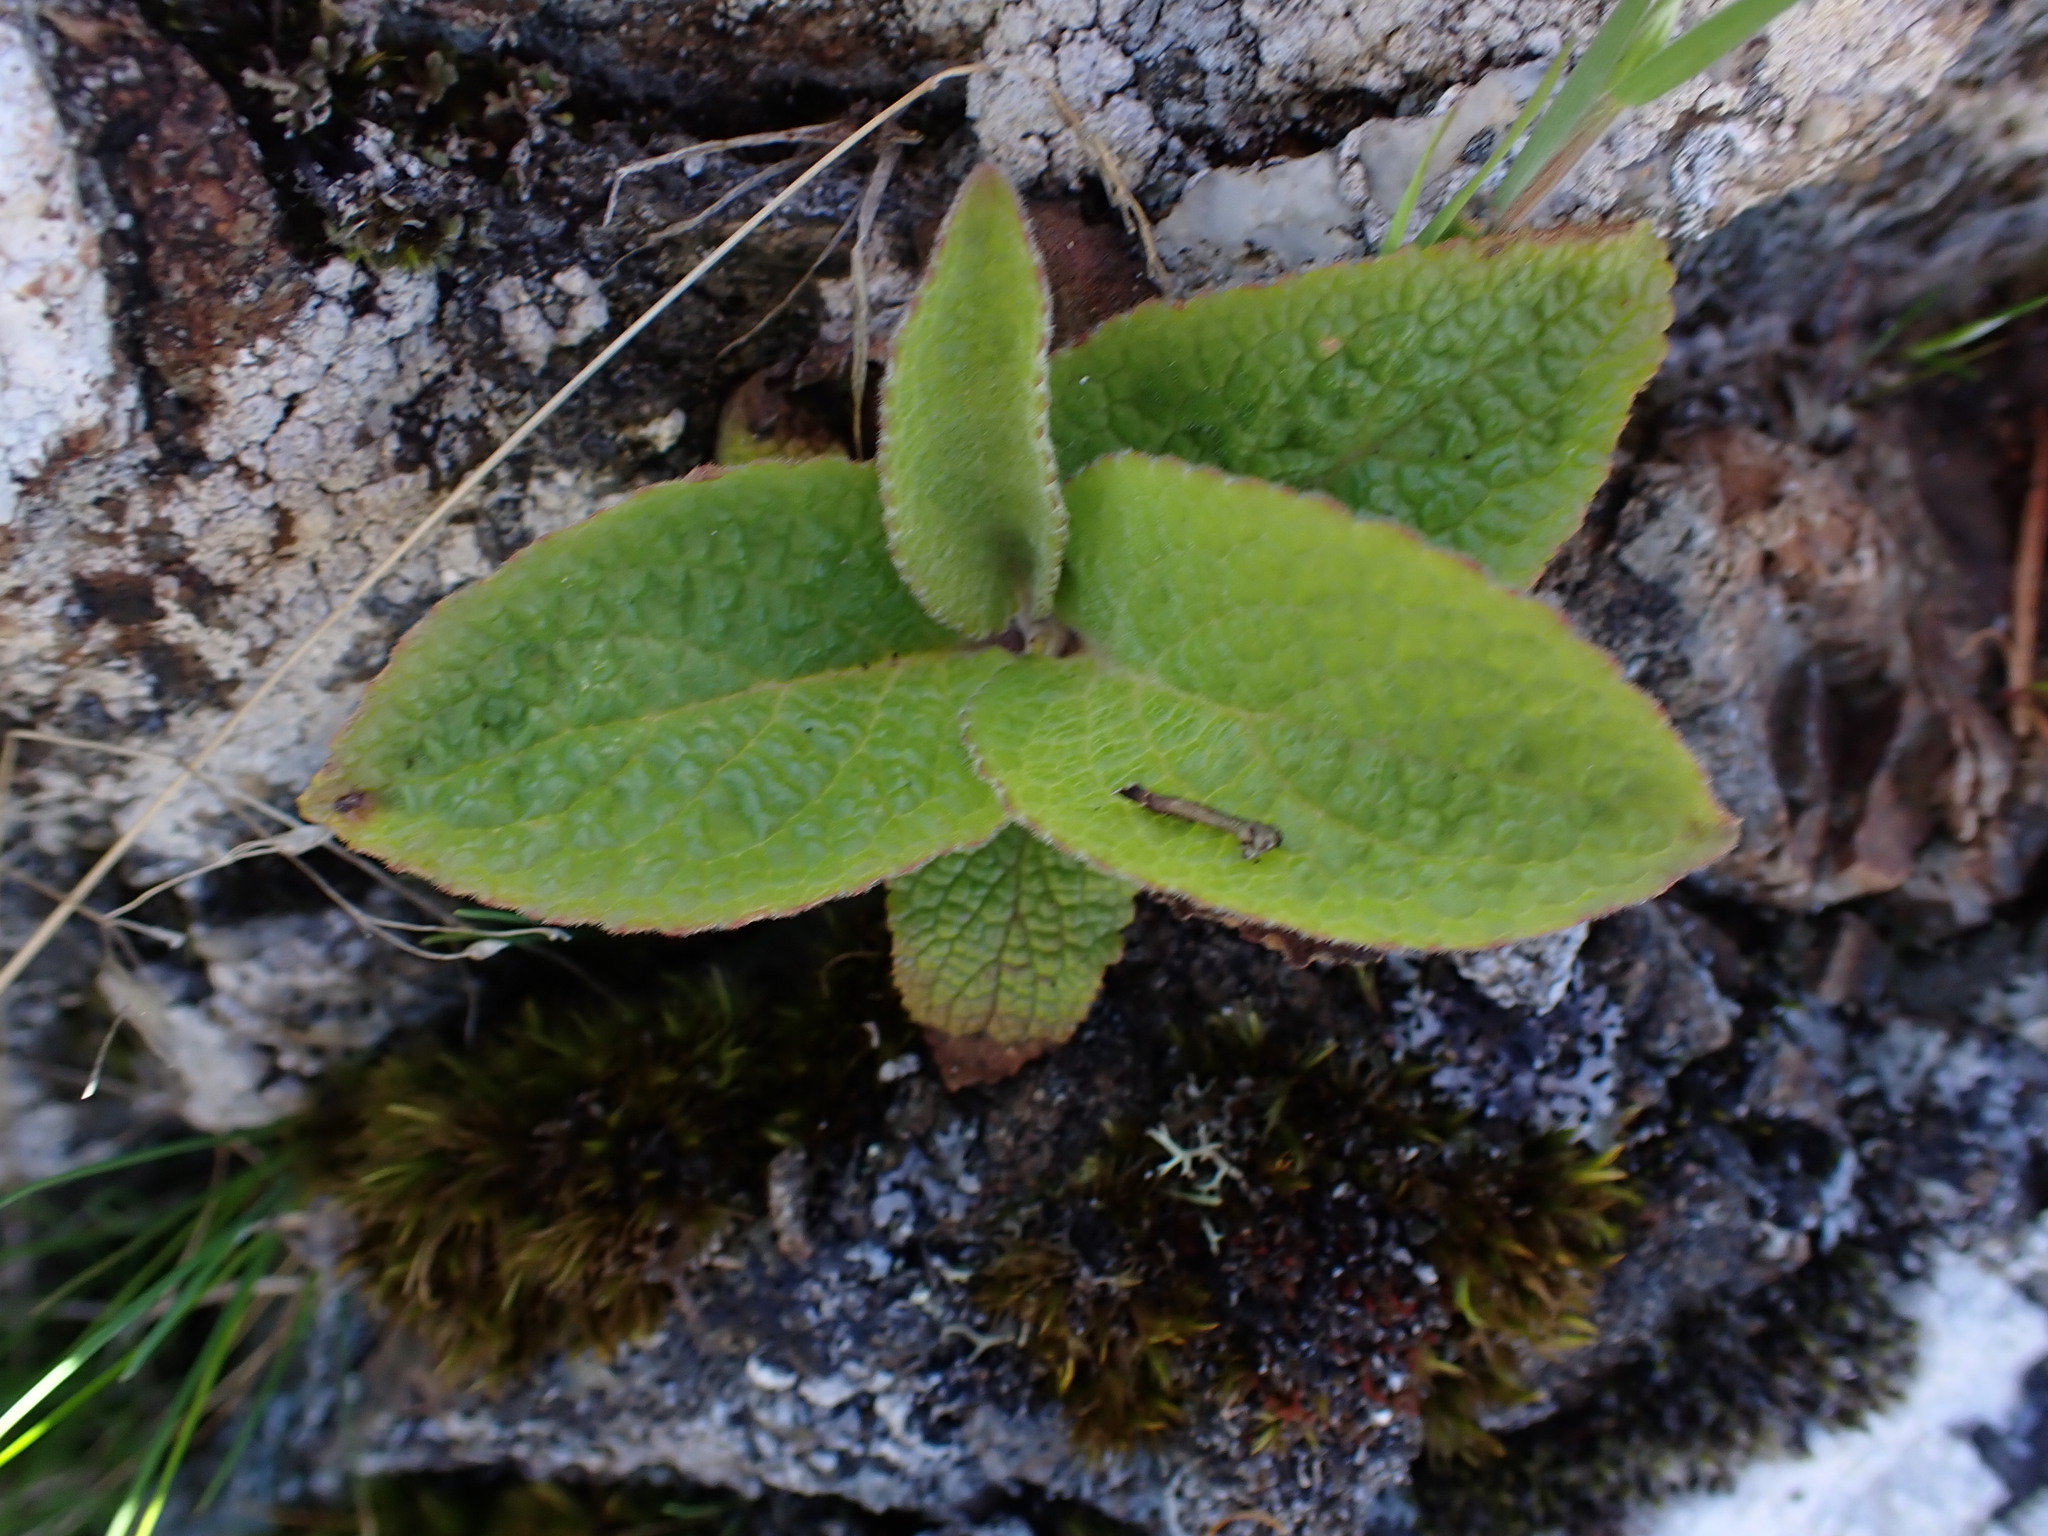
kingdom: Plantae
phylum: Tracheophyta
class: Magnoliopsida
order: Lamiales
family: Plantaginaceae
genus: Digitalis
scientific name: Digitalis purpurea
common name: Foxglove
